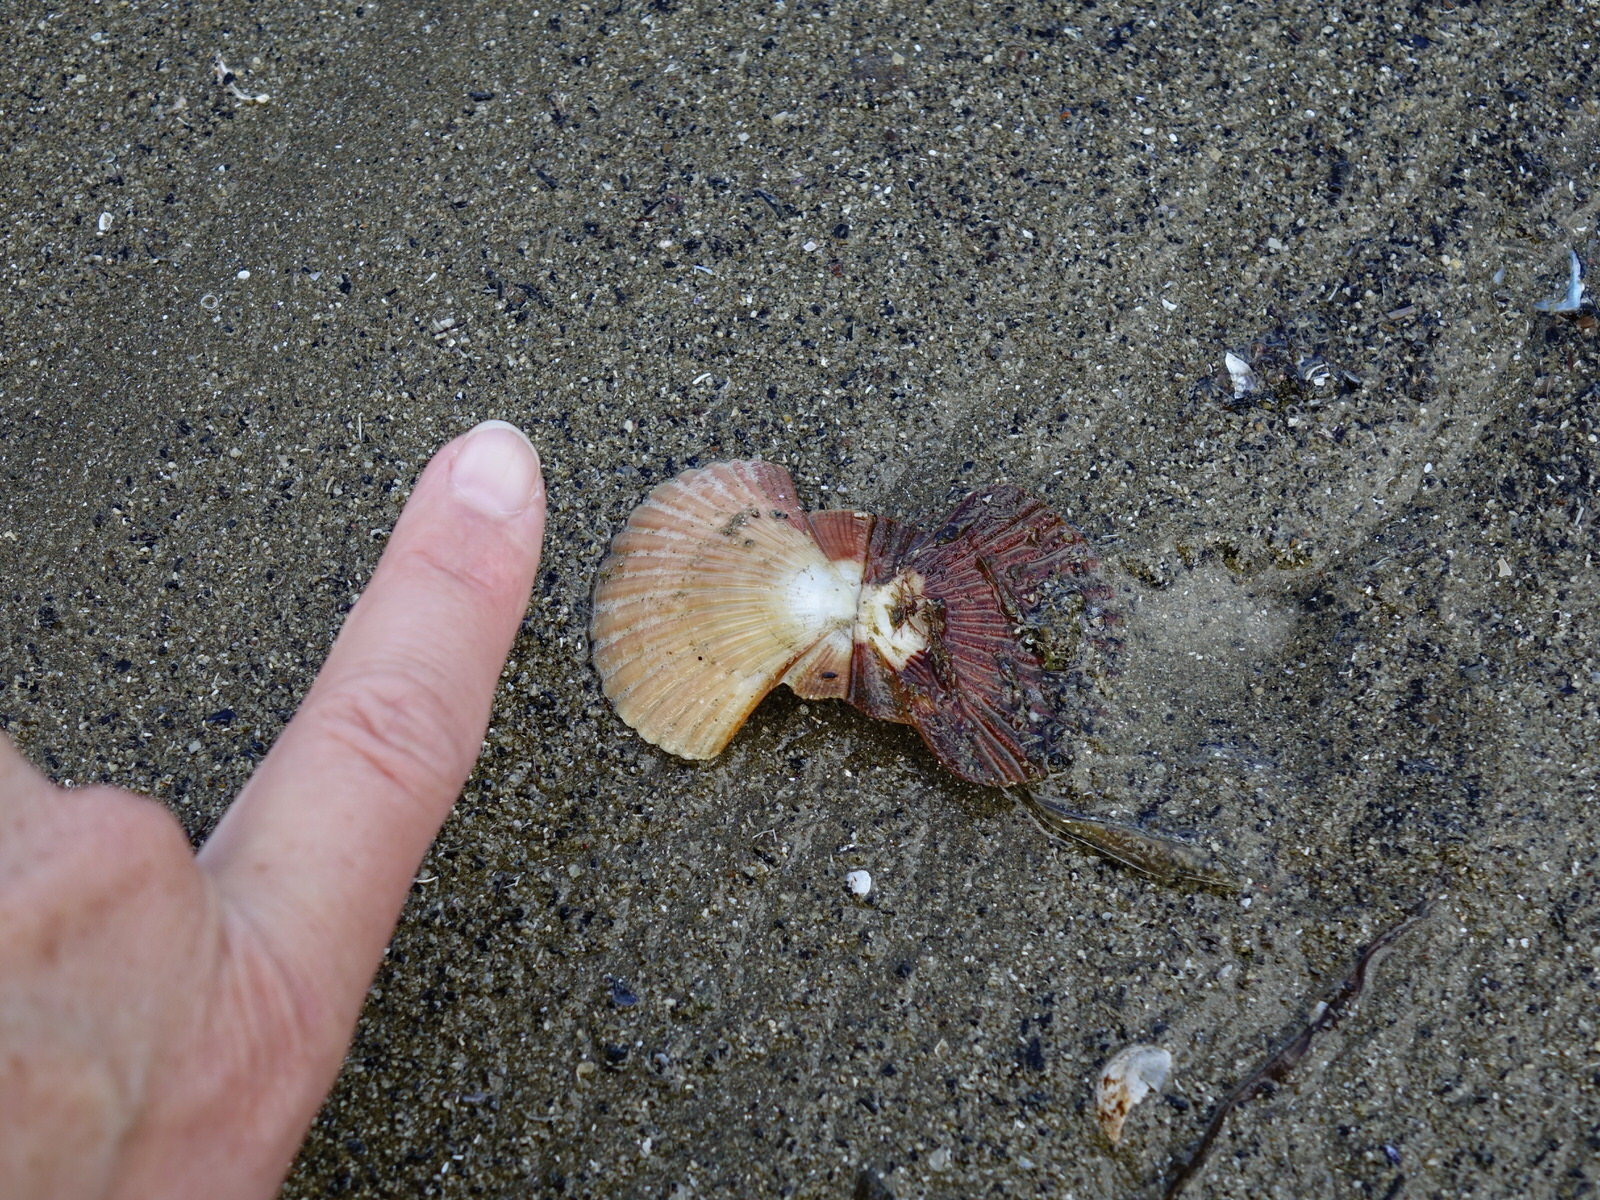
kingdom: Animalia
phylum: Mollusca
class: Bivalvia
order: Pectinida
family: Pectinidae
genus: Pecten
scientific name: Pecten novaezelandiae
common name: New zealand scallop
